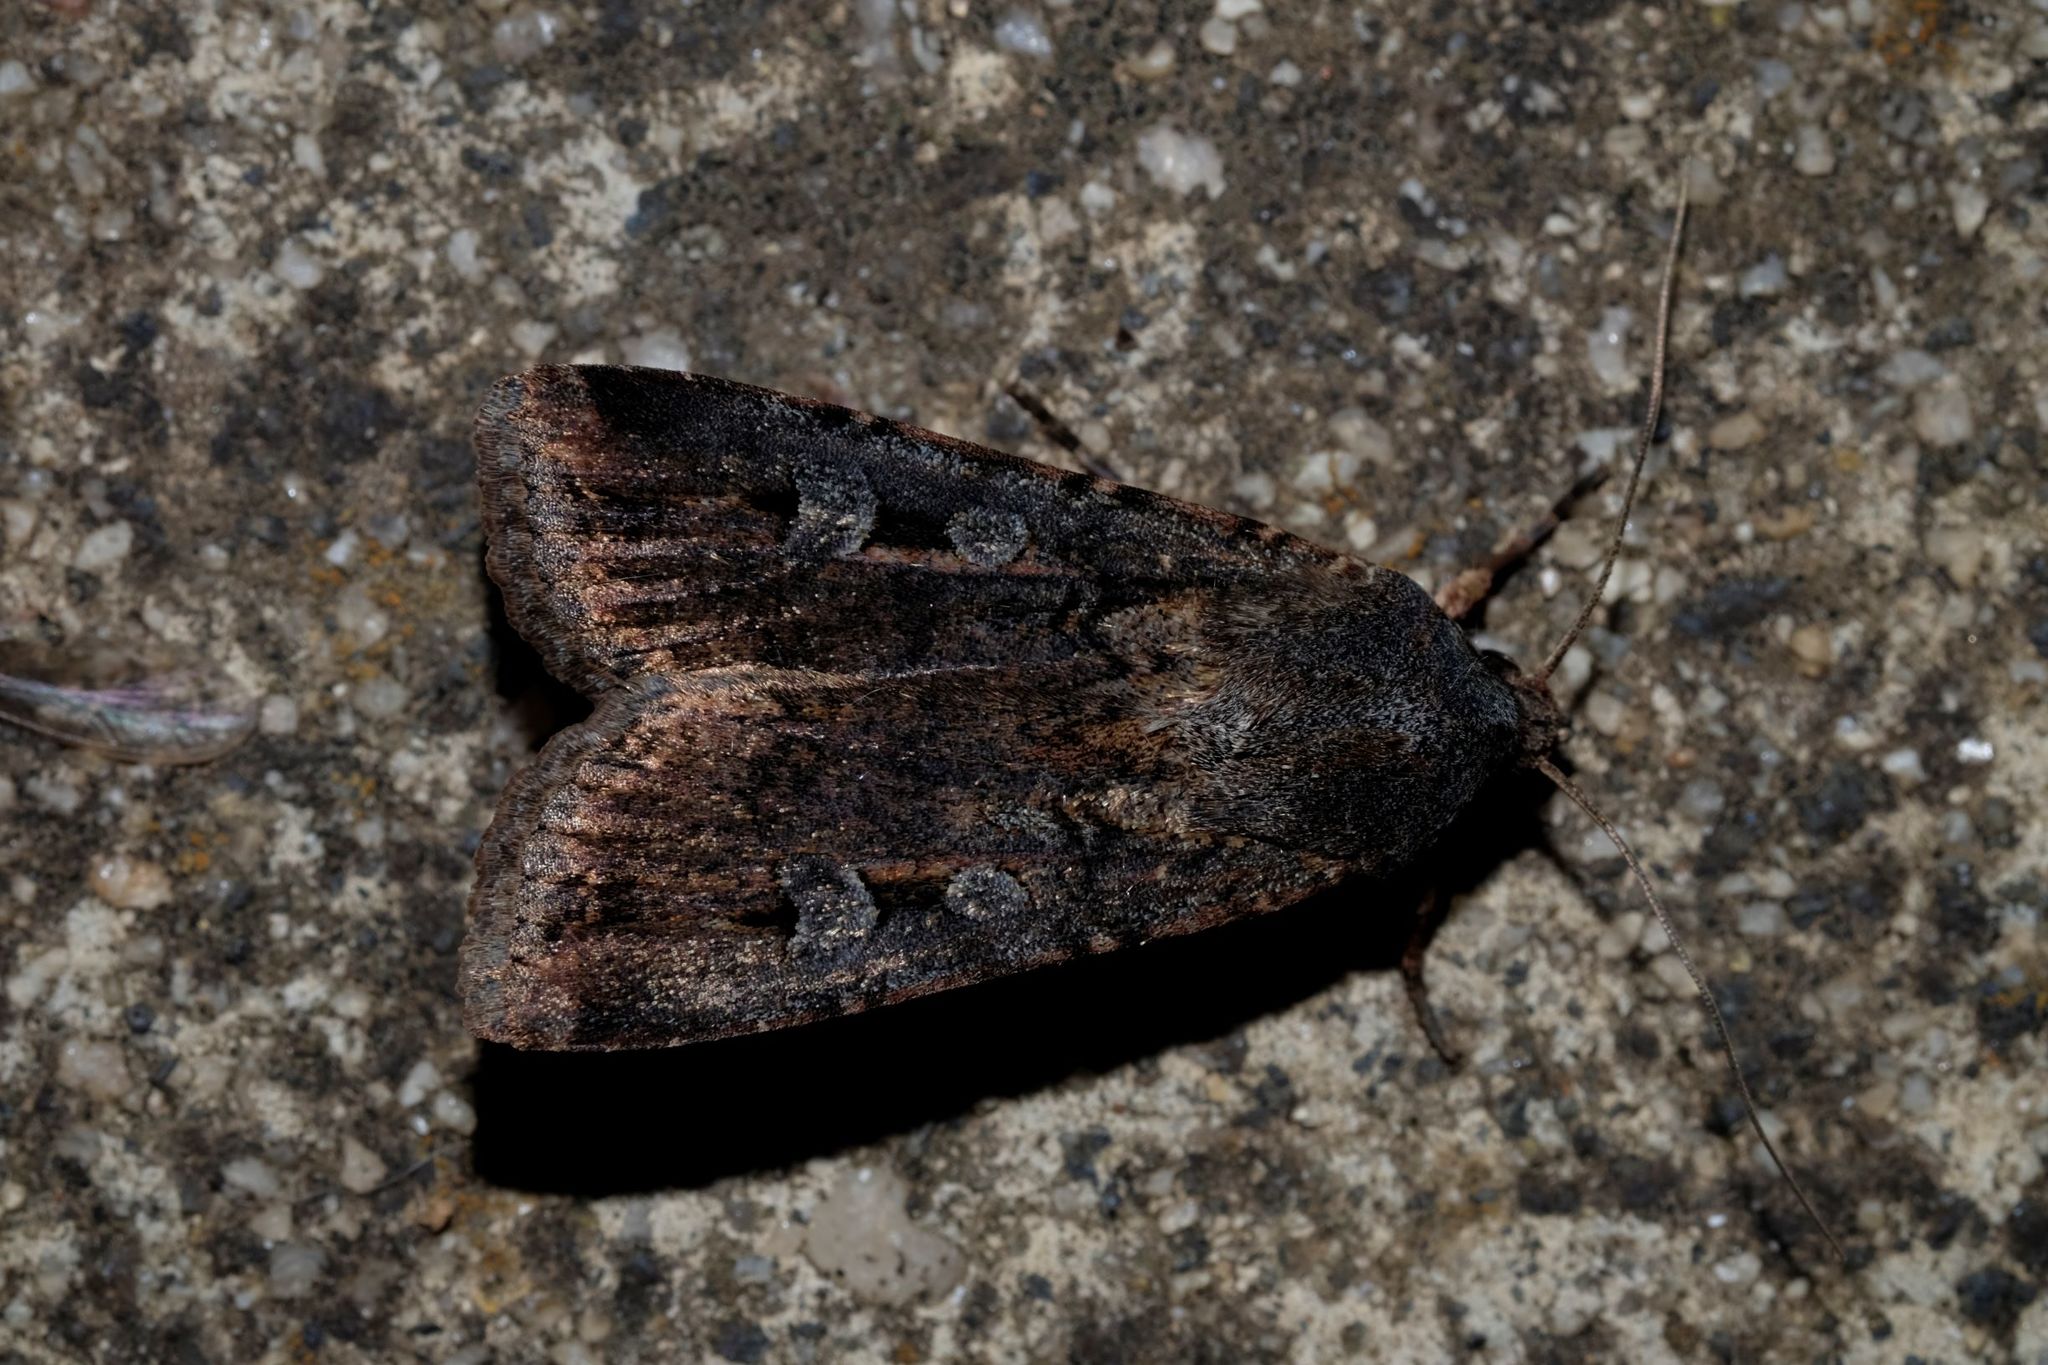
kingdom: Animalia
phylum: Arthropoda
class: Insecta
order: Lepidoptera
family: Noctuidae
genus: Agrotis
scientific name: Agrotis infusa
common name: Bogong moth
